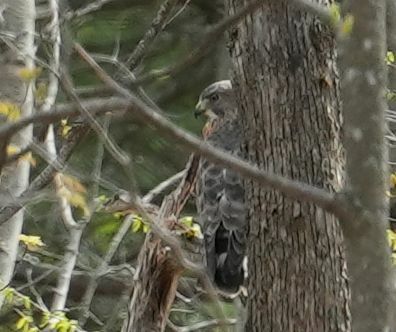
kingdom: Animalia
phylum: Chordata
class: Aves
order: Accipitriformes
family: Accipitridae
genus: Buteo
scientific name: Buteo platypterus
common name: Broad-winged hawk
